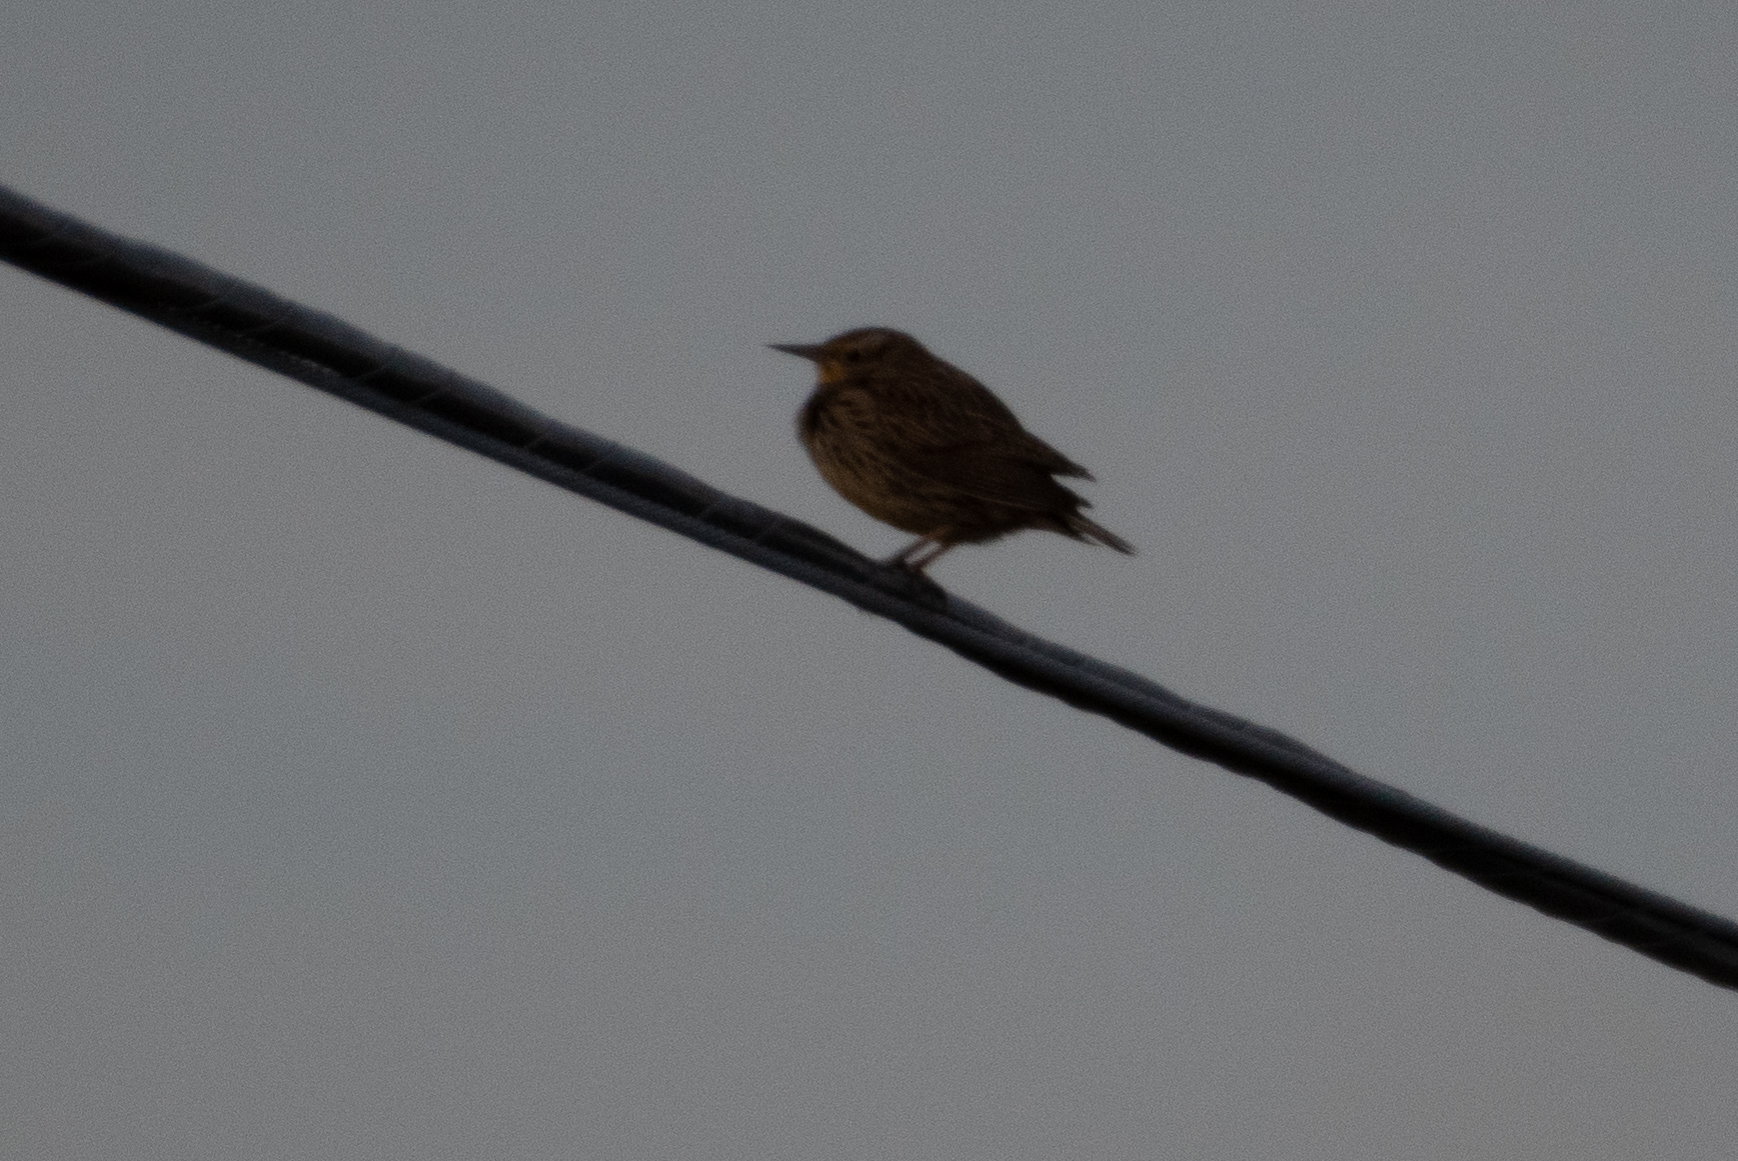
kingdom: Animalia
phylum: Chordata
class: Aves
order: Passeriformes
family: Icteridae
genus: Sturnella
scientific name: Sturnella neglecta
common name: Western meadowlark
